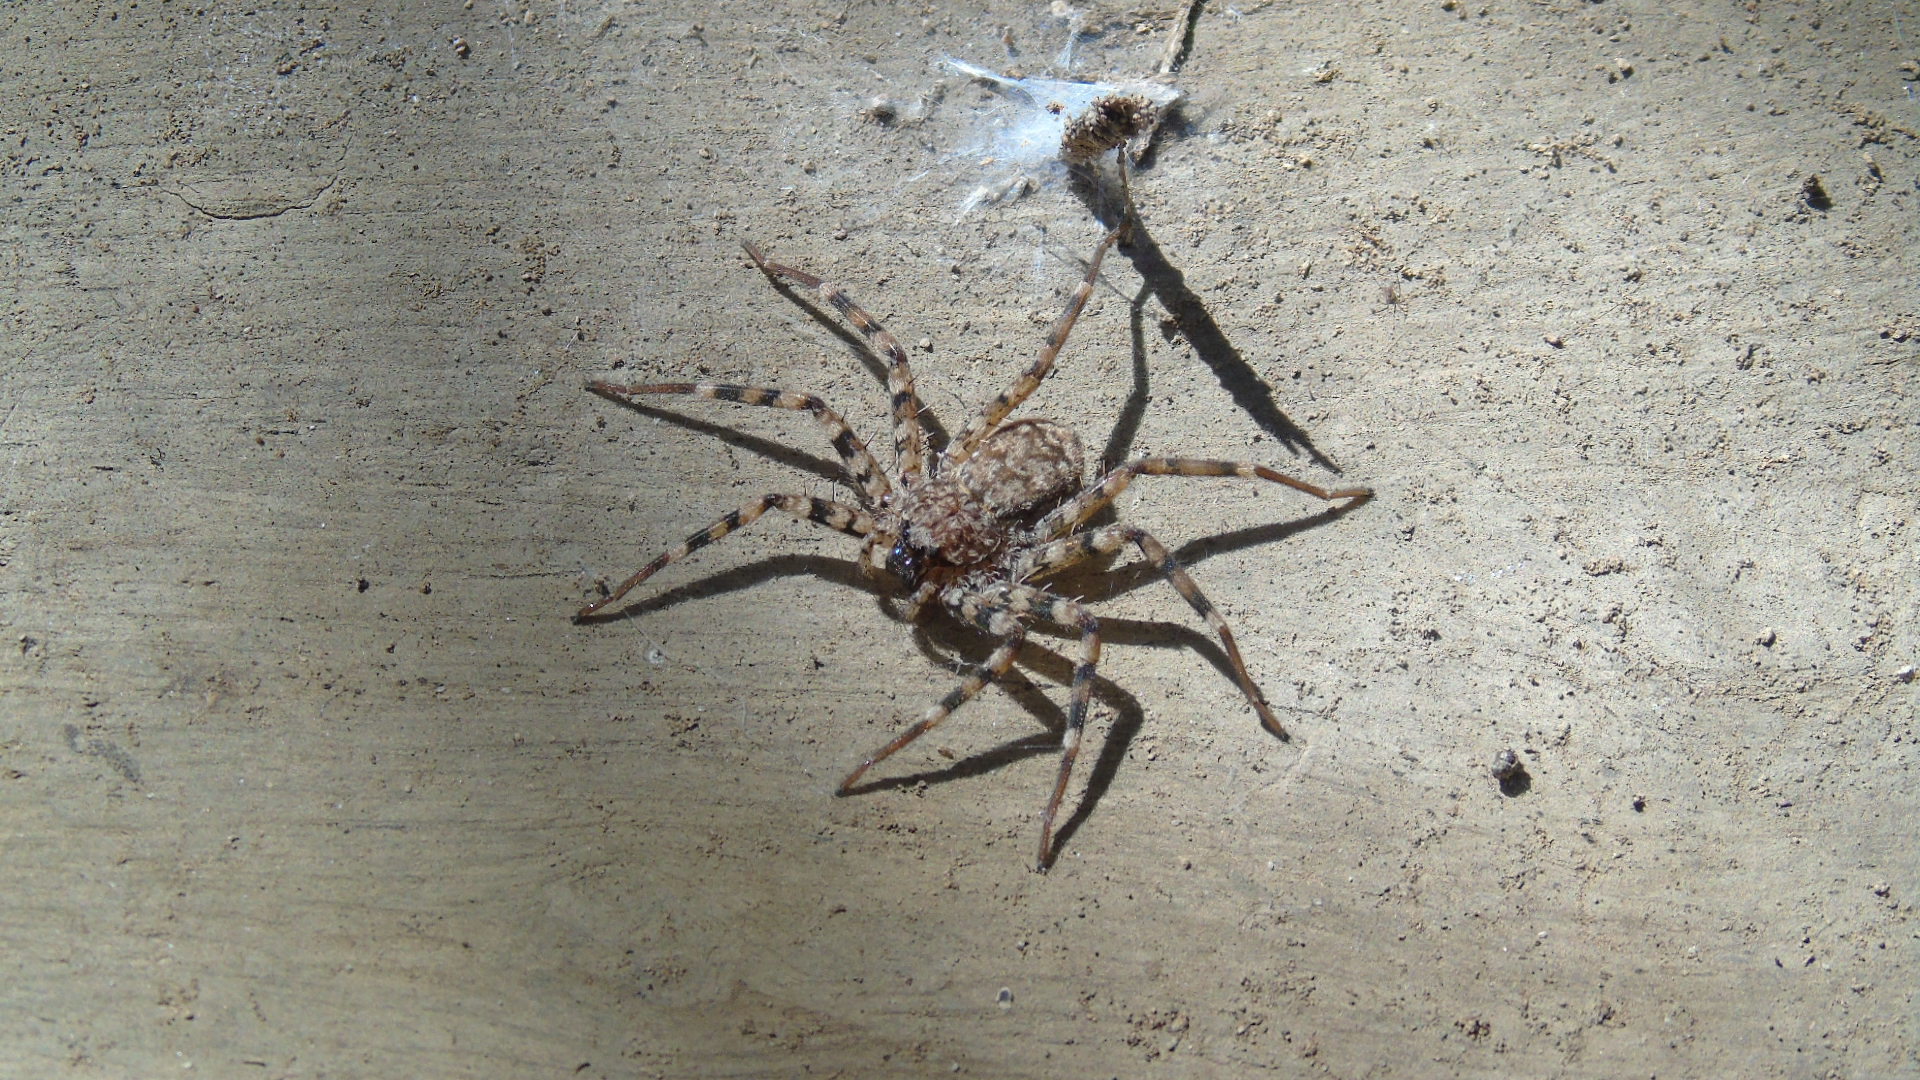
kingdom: Animalia
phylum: Arthropoda
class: Arachnida
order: Araneae
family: Selenopidae
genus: Selenops
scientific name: Selenops actophilus
